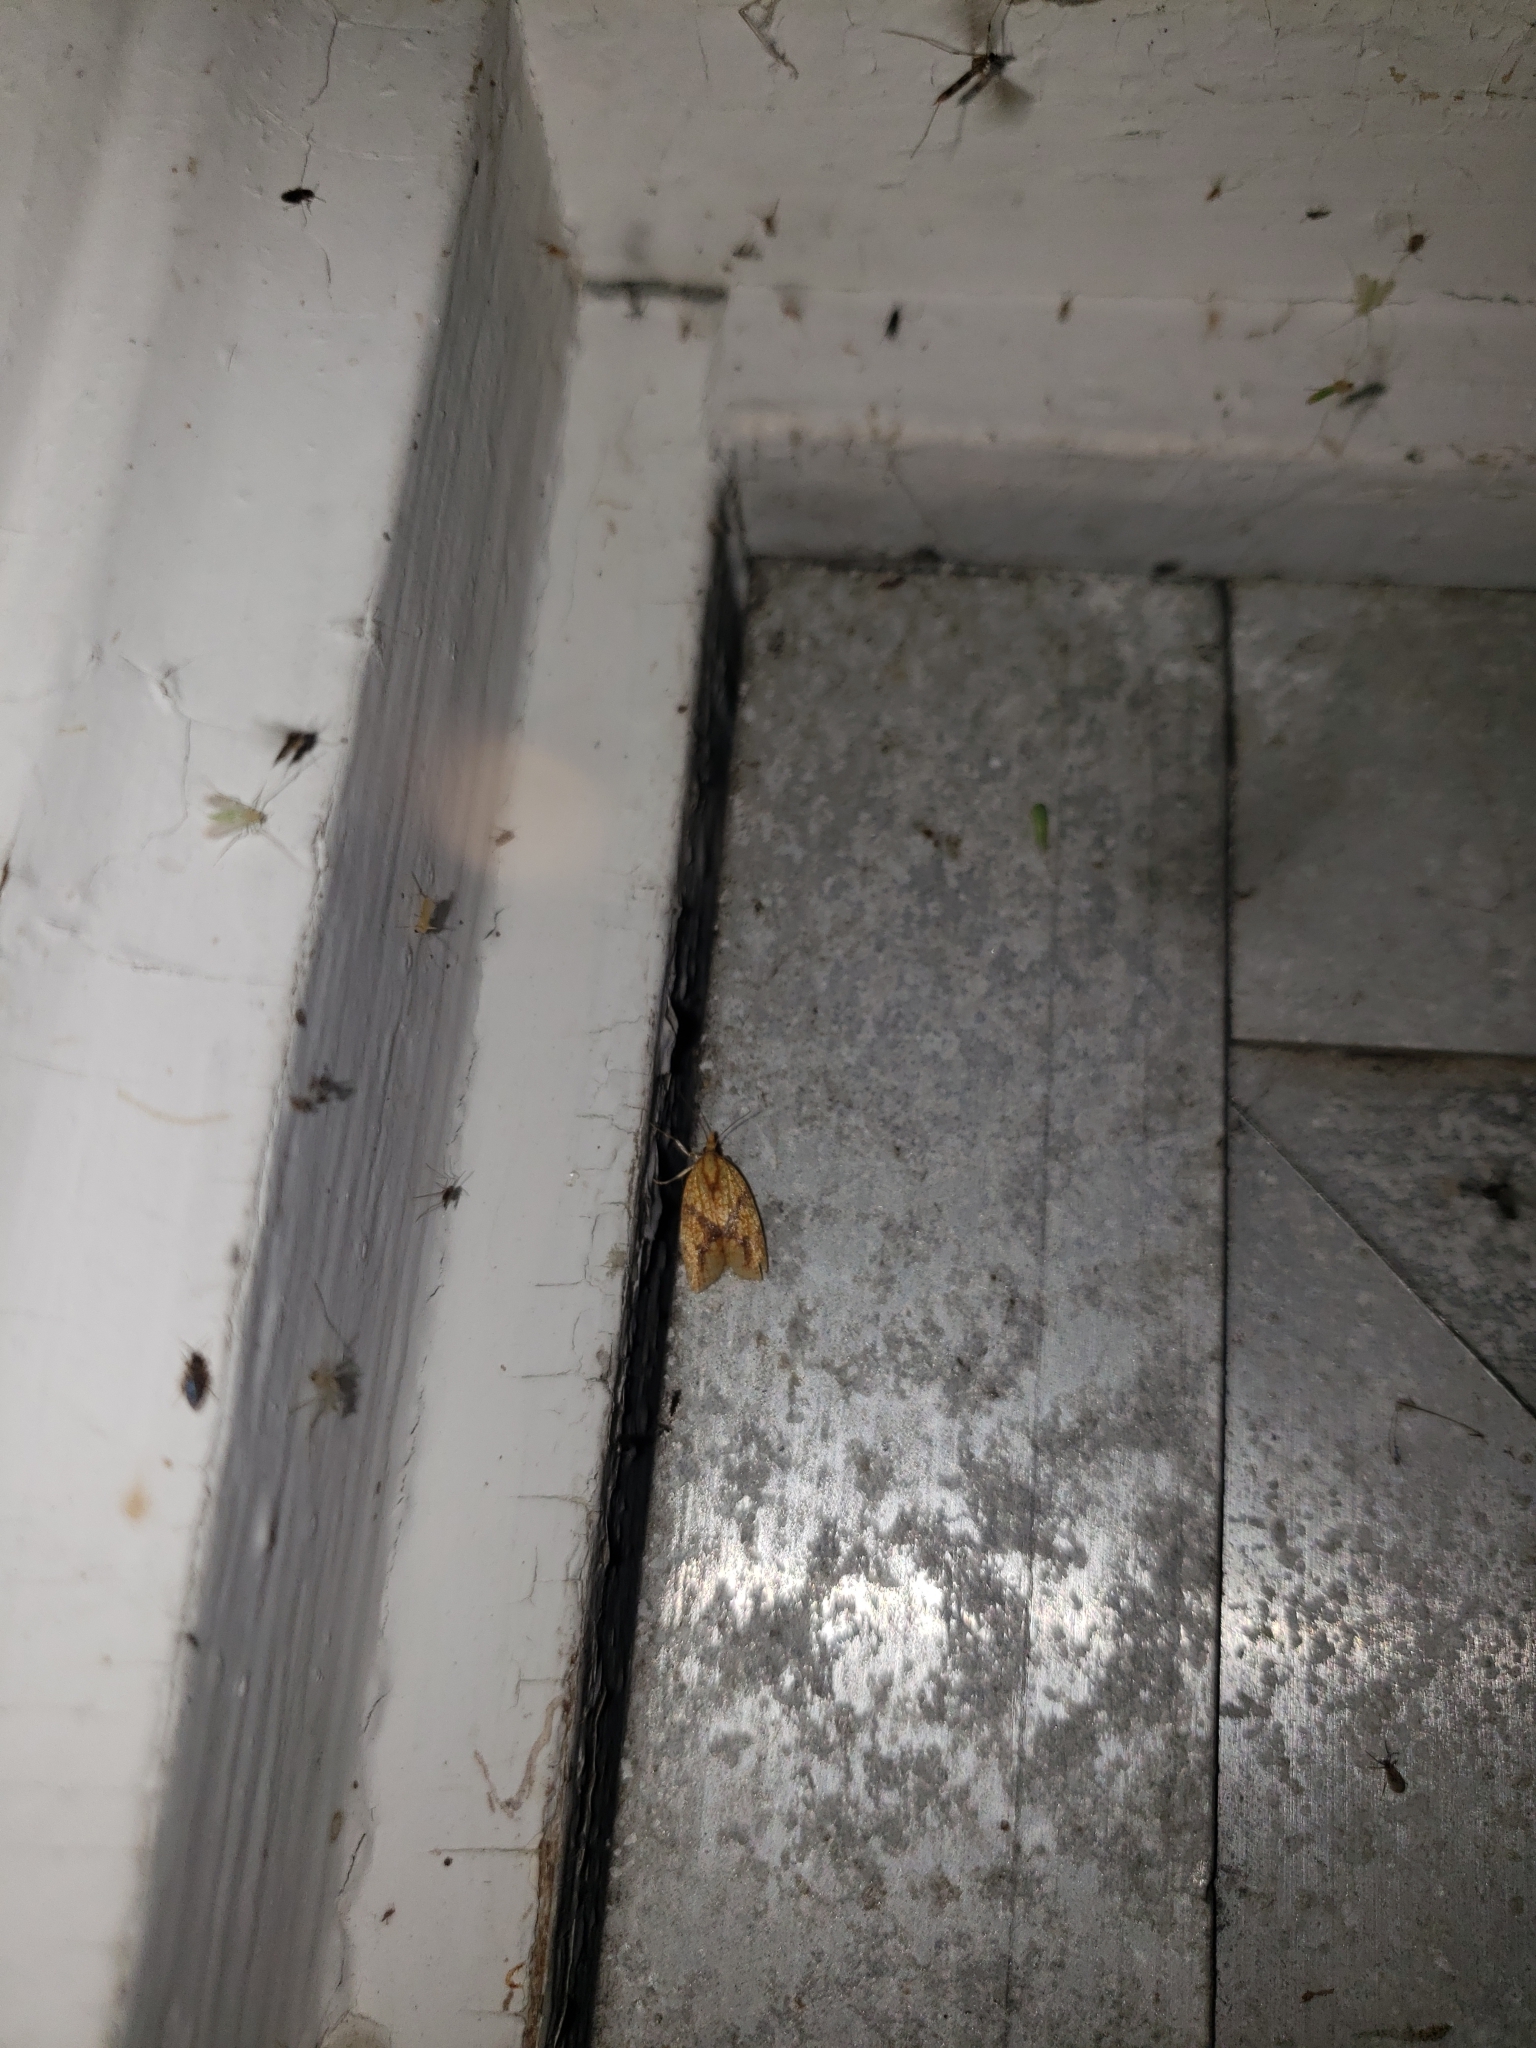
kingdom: Animalia
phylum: Arthropoda
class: Insecta
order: Lepidoptera
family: Tortricidae
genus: Sparganothis
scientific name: Sparganothis sulfureana
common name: Sparganothis fruitworm moth
